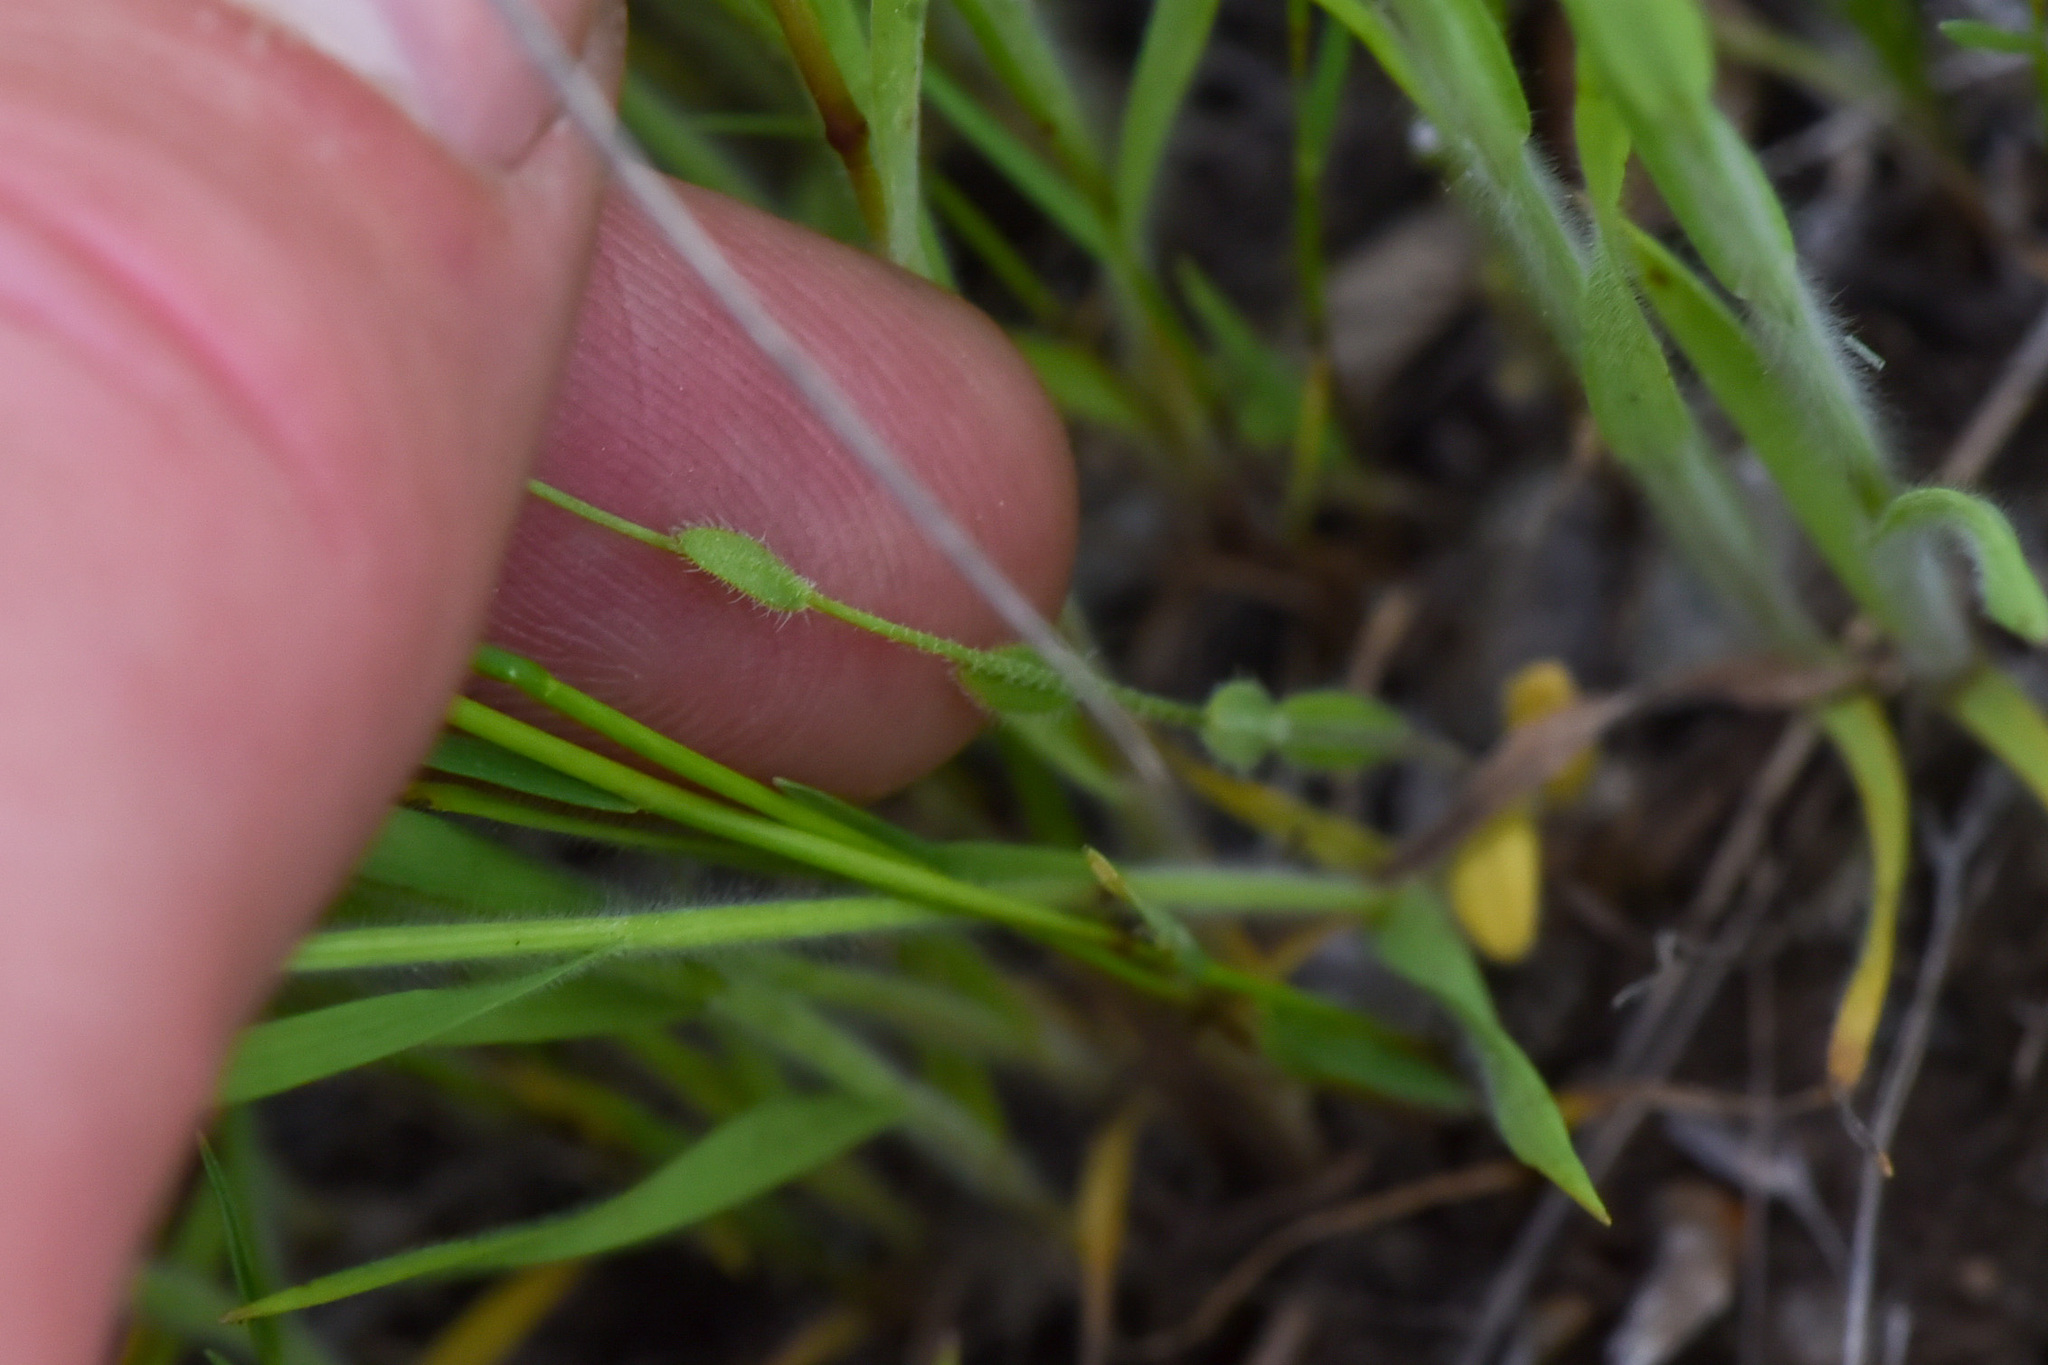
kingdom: Plantae
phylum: Tracheophyta
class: Magnoliopsida
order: Brassicales
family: Brassicaceae
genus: Camelina
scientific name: Camelina microcarpa
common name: Lesser gold-of-pleasure
